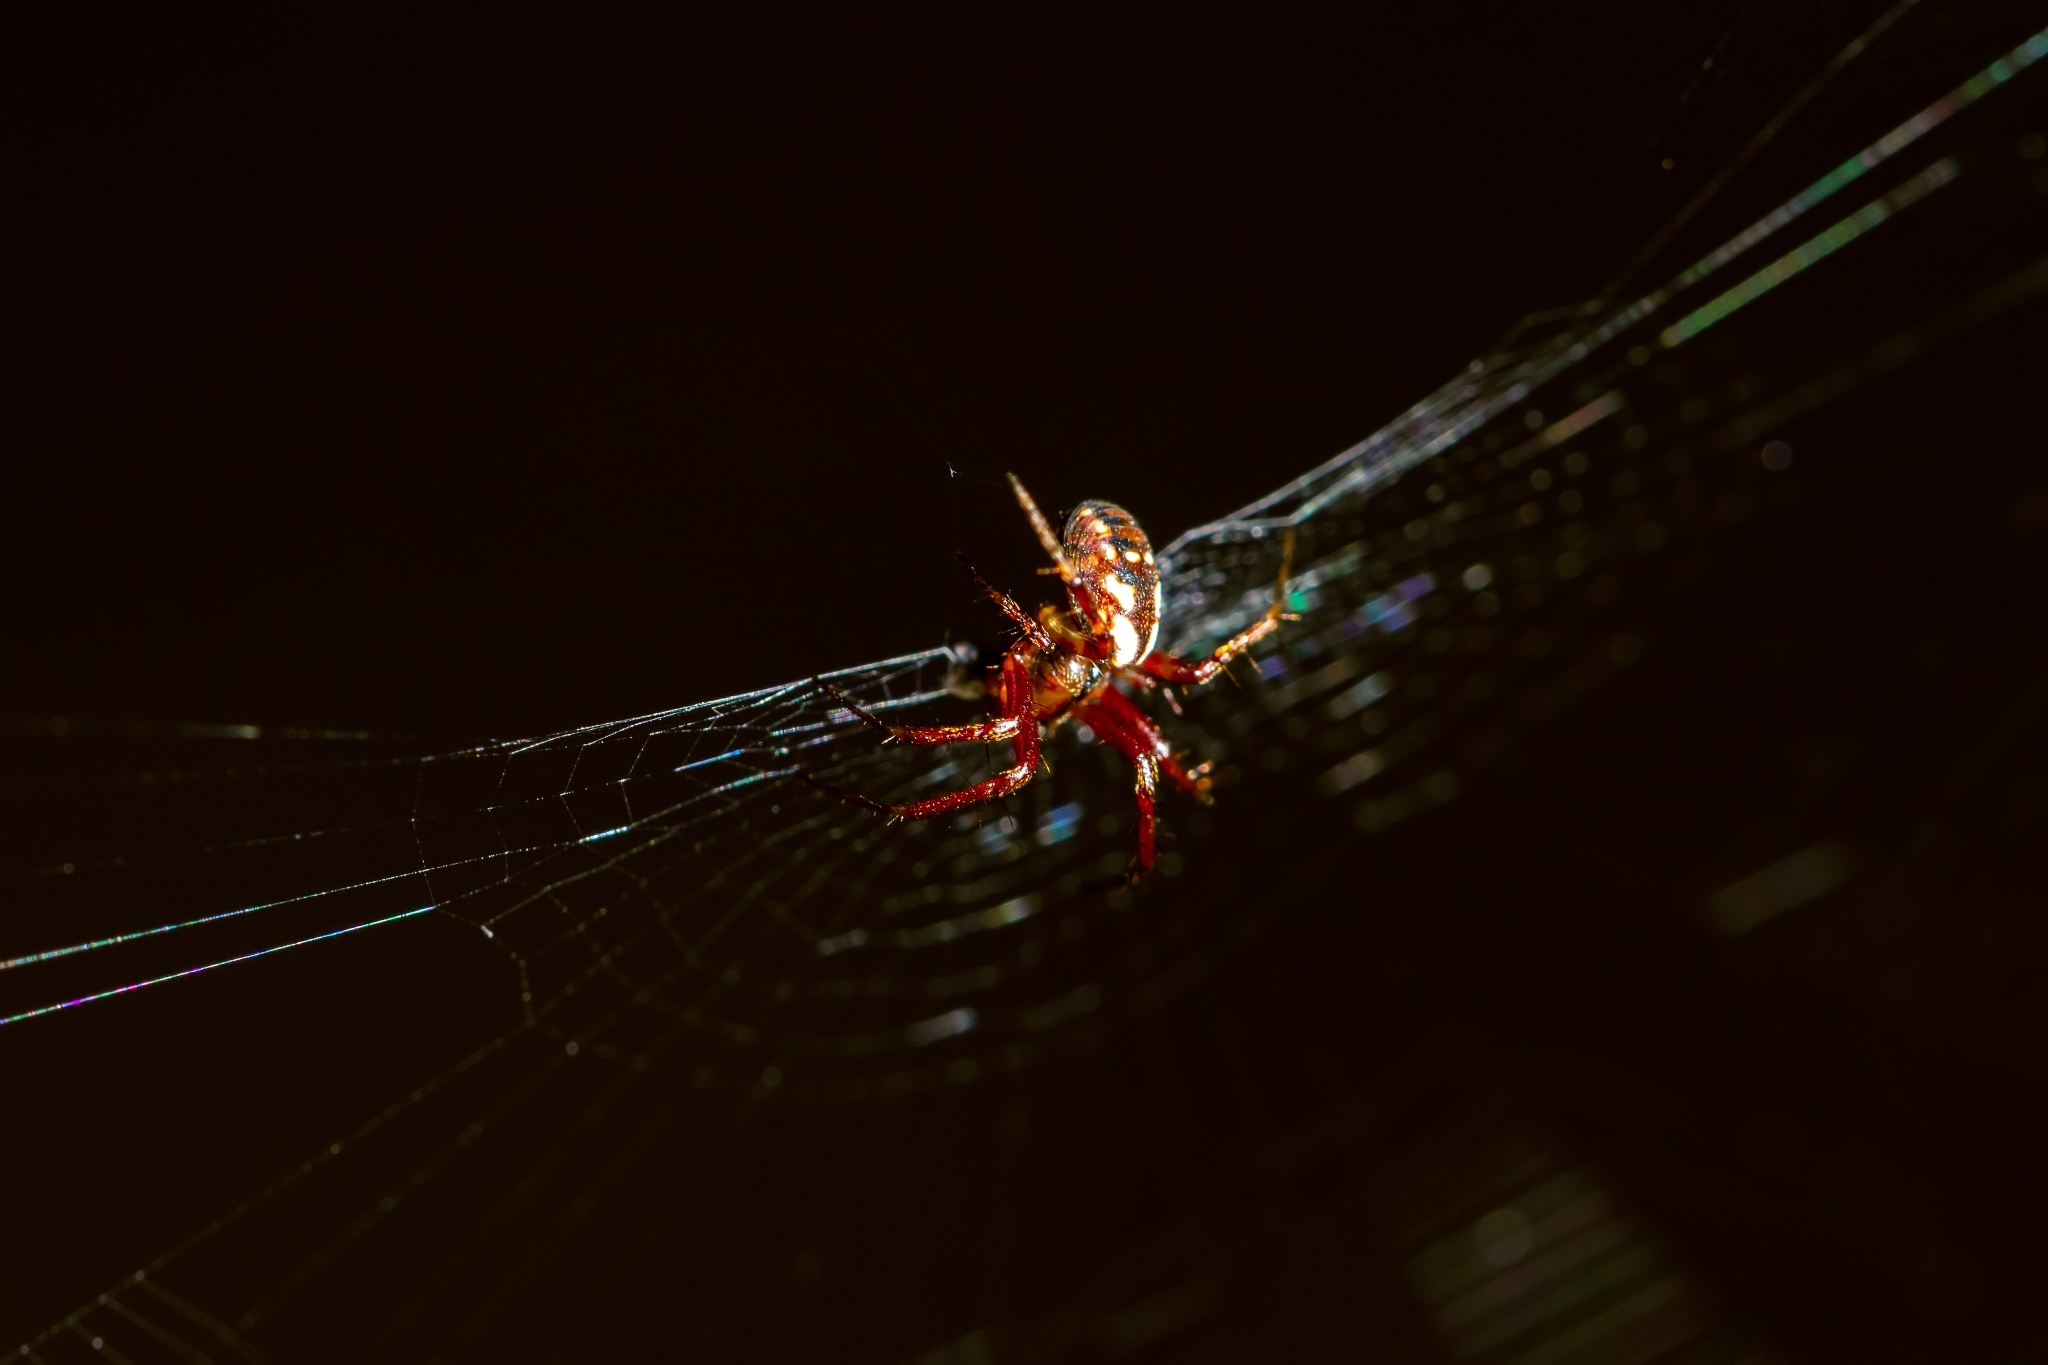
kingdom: Animalia
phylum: Arthropoda
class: Arachnida
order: Araneae
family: Araneidae
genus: Mangora
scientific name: Mangora placida
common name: Tuft-legged orbweaver
